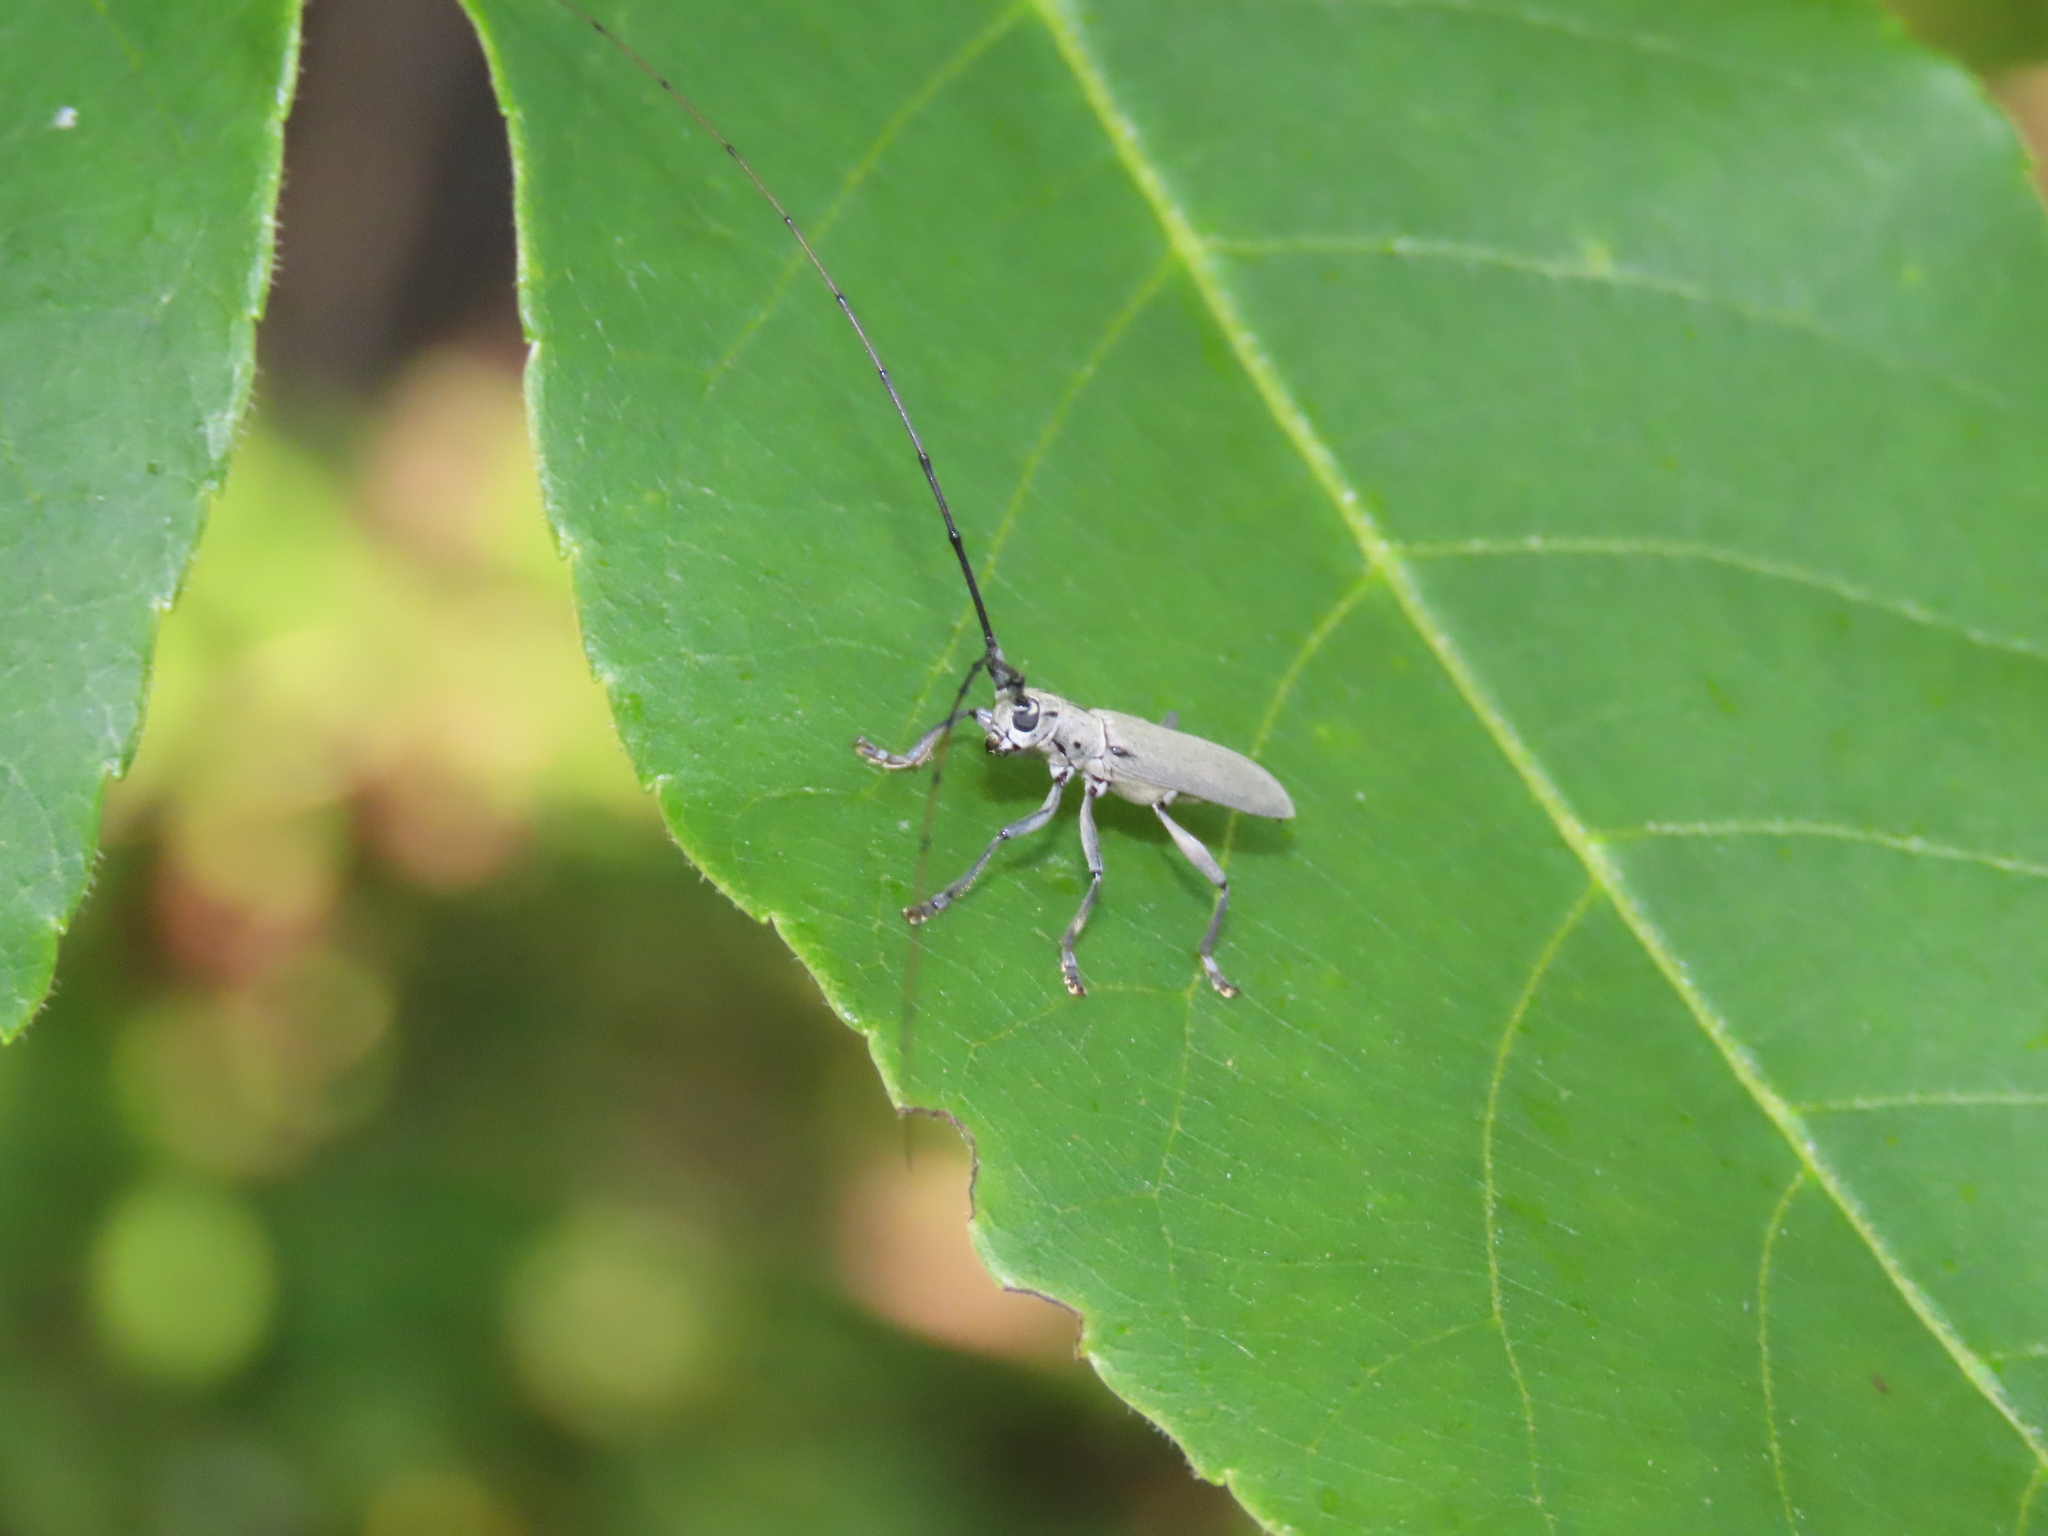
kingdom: Animalia
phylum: Arthropoda
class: Insecta
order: Coleoptera
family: Cerambycidae
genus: Dorcaschema
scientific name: Dorcaschema cinereum
